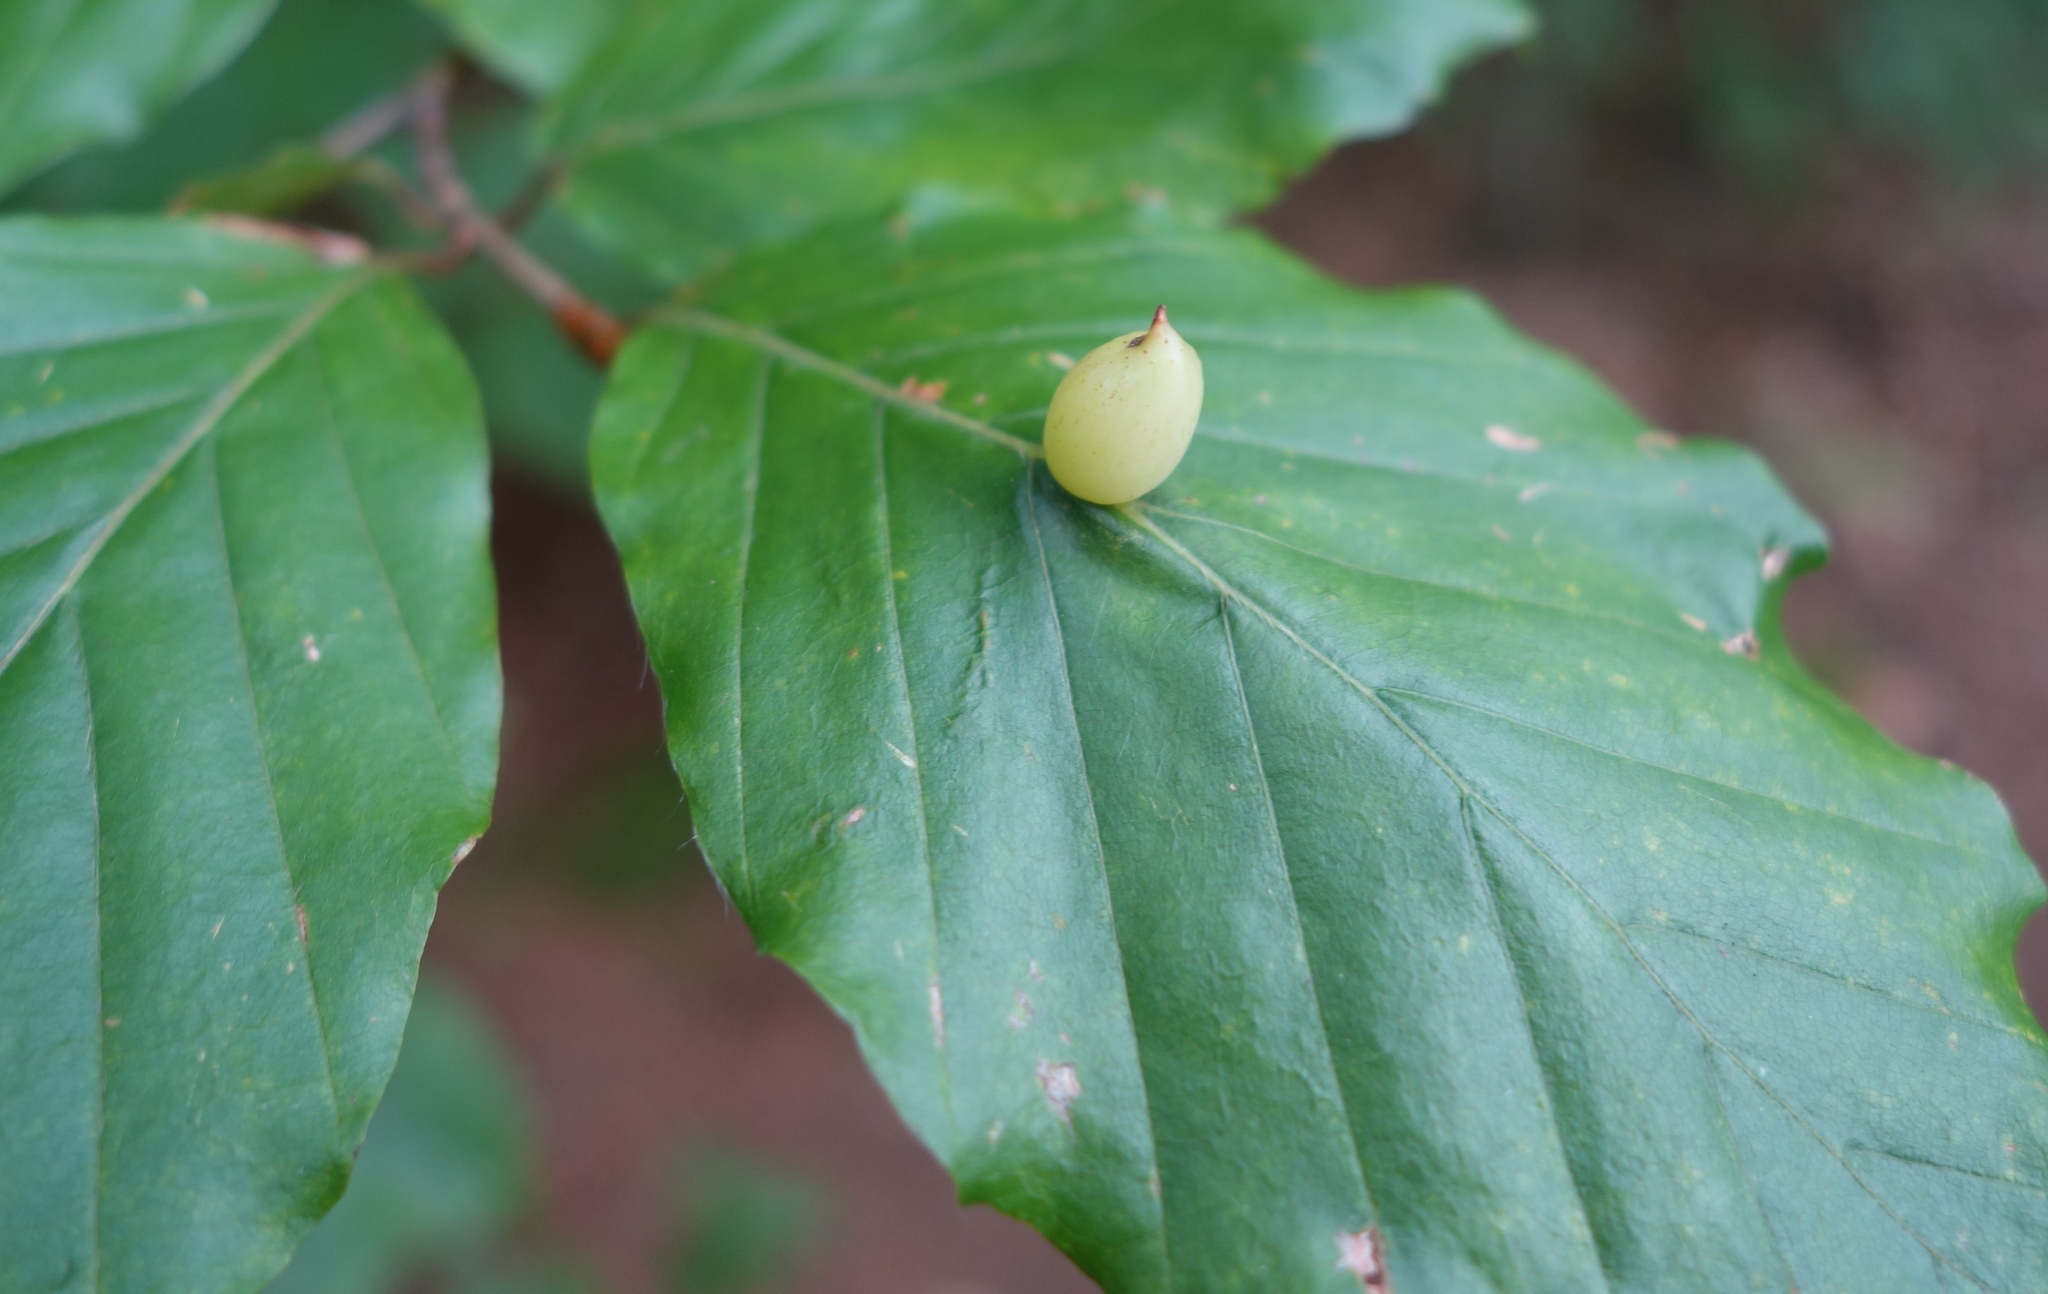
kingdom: Animalia
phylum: Arthropoda
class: Insecta
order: Diptera
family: Cecidomyiidae
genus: Mikiola
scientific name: Mikiola fagi
